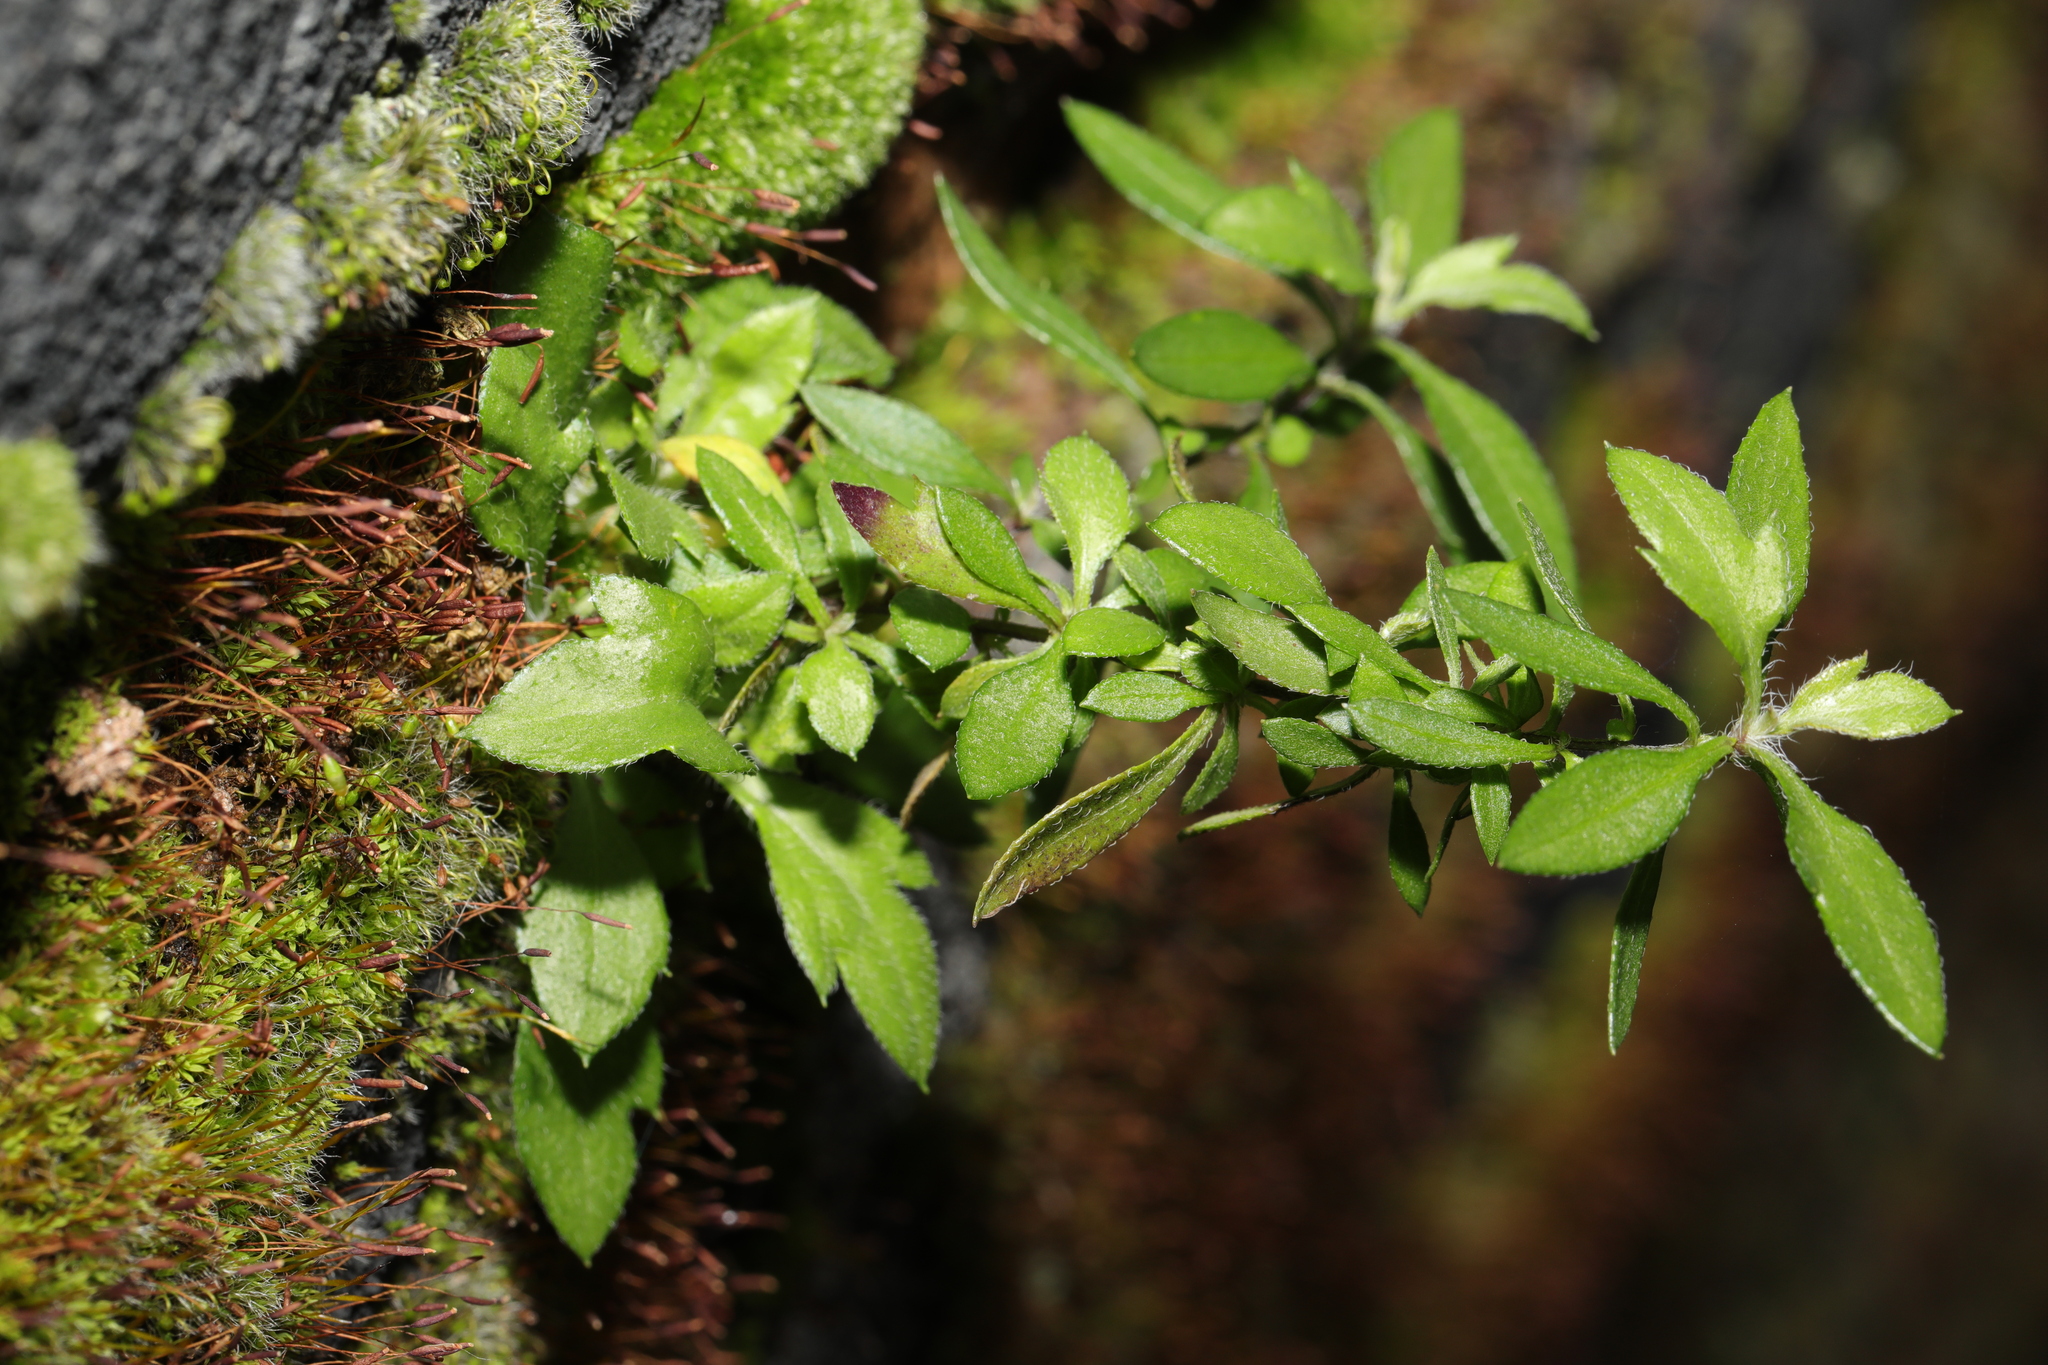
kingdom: Plantae
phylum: Tracheophyta
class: Magnoliopsida
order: Asterales
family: Asteraceae
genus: Erigeron
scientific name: Erigeron karvinskianus
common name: Mexican fleabane
